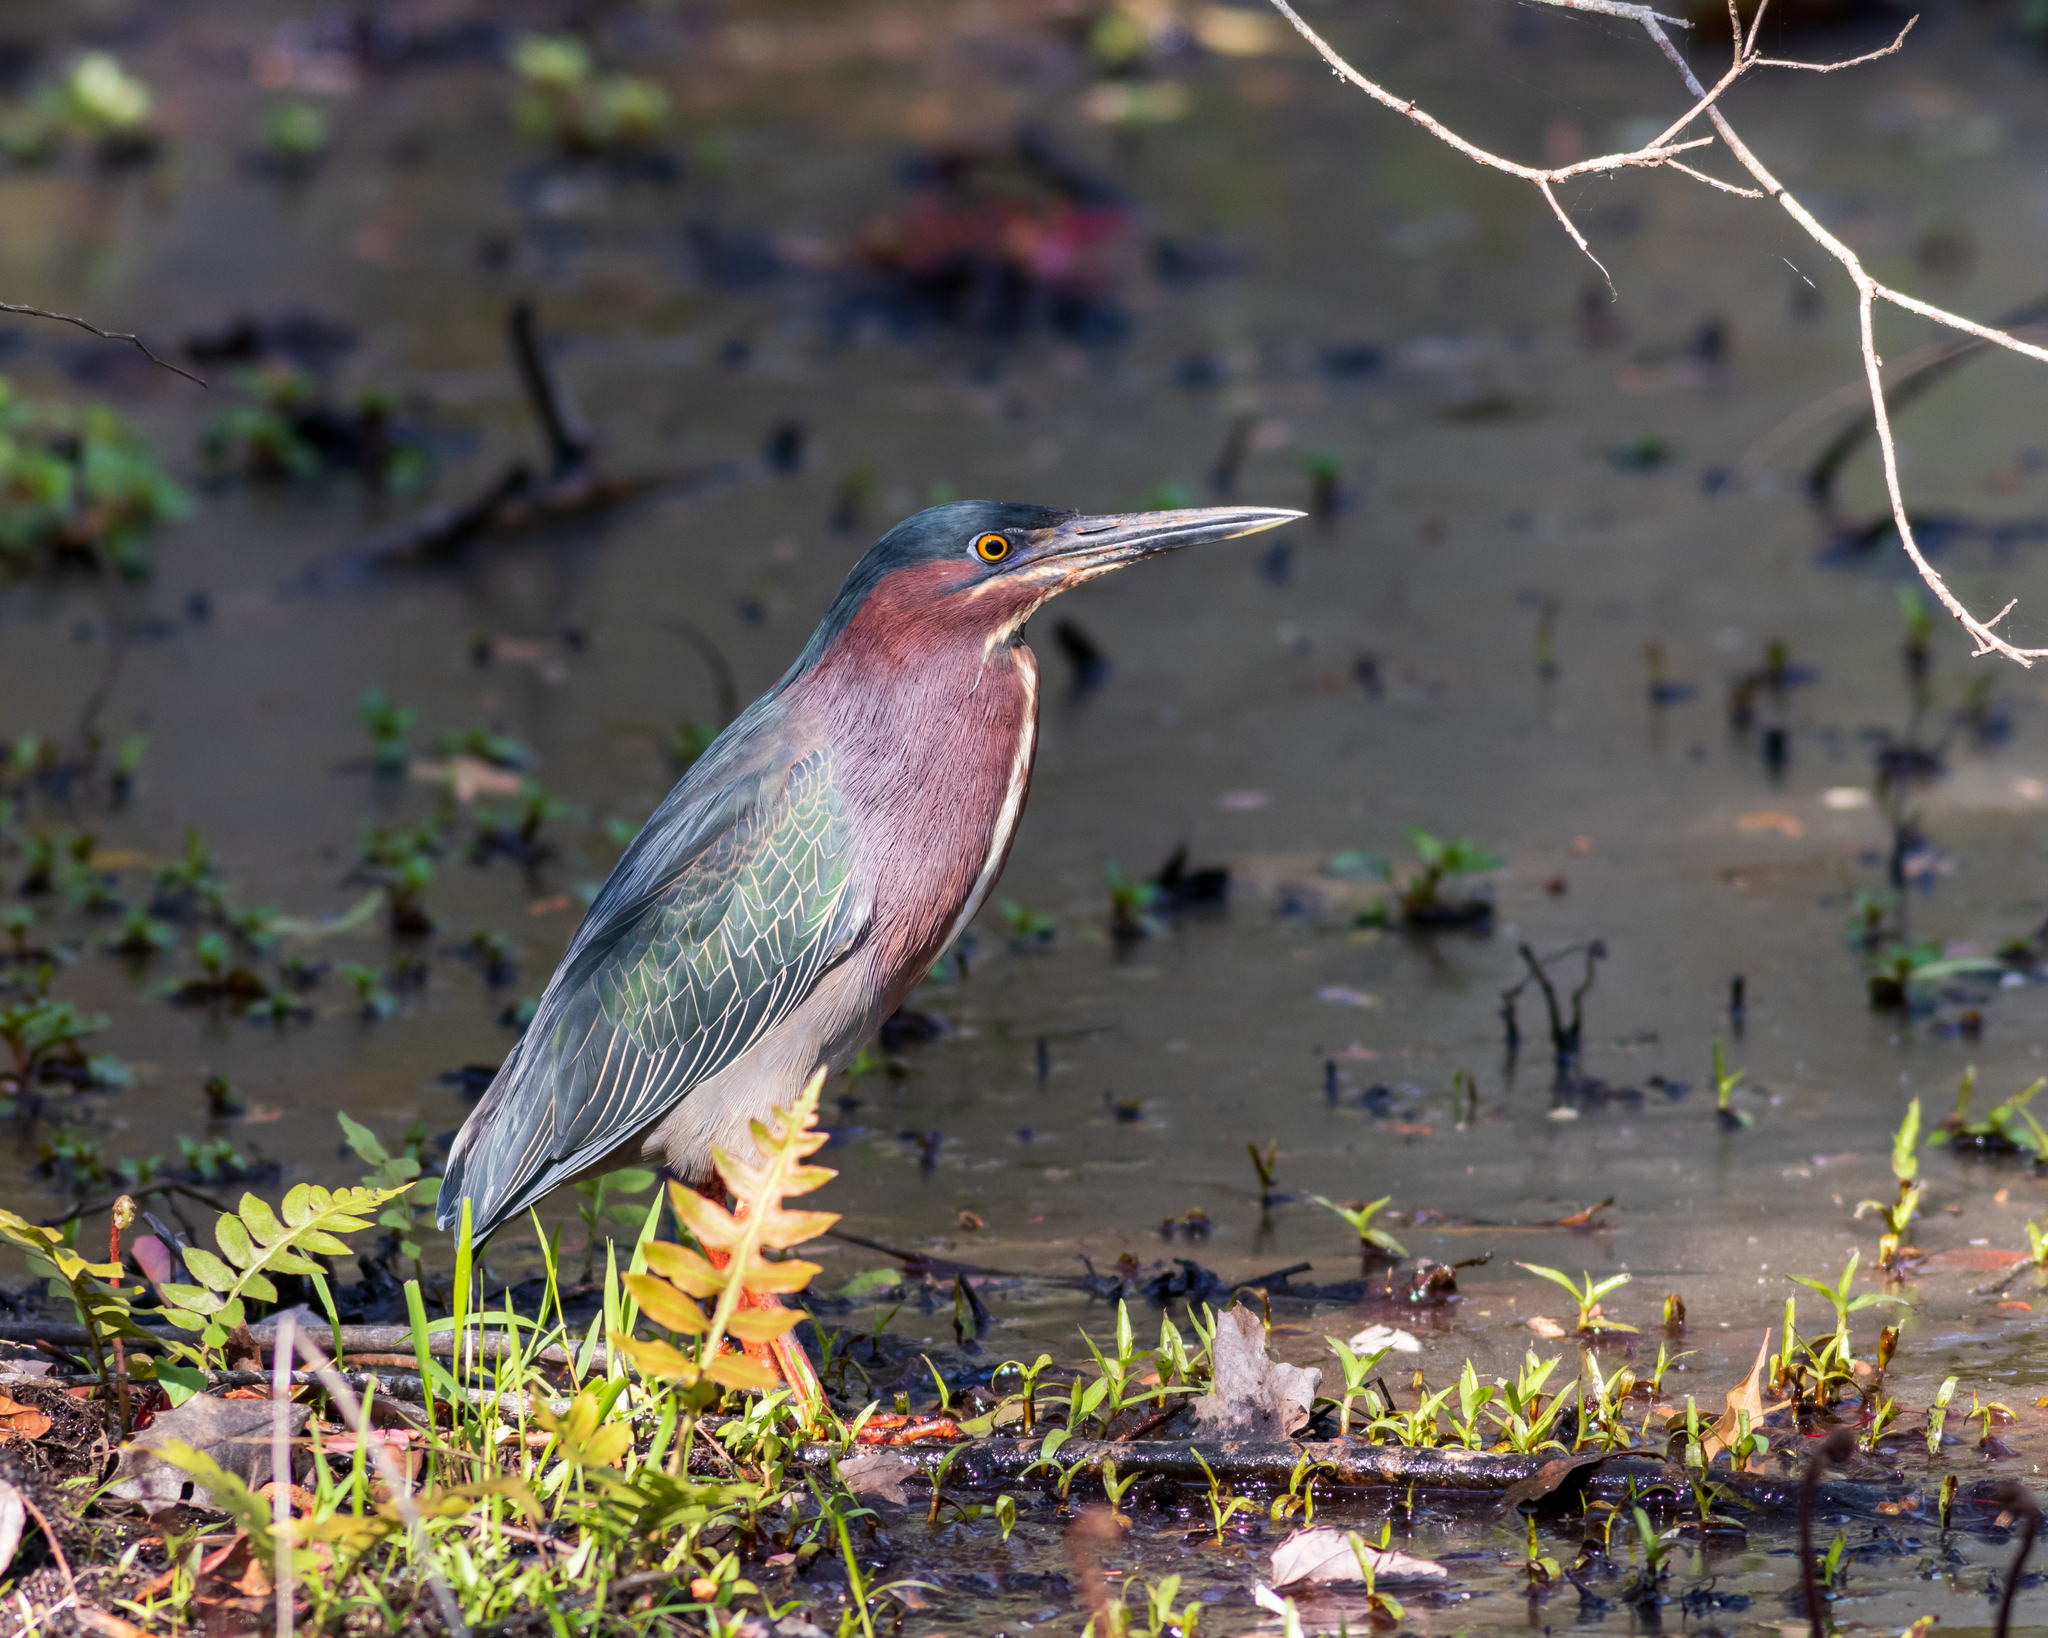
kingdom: Animalia
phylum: Chordata
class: Aves
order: Pelecaniformes
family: Ardeidae
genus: Butorides
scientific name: Butorides virescens
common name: Green heron
